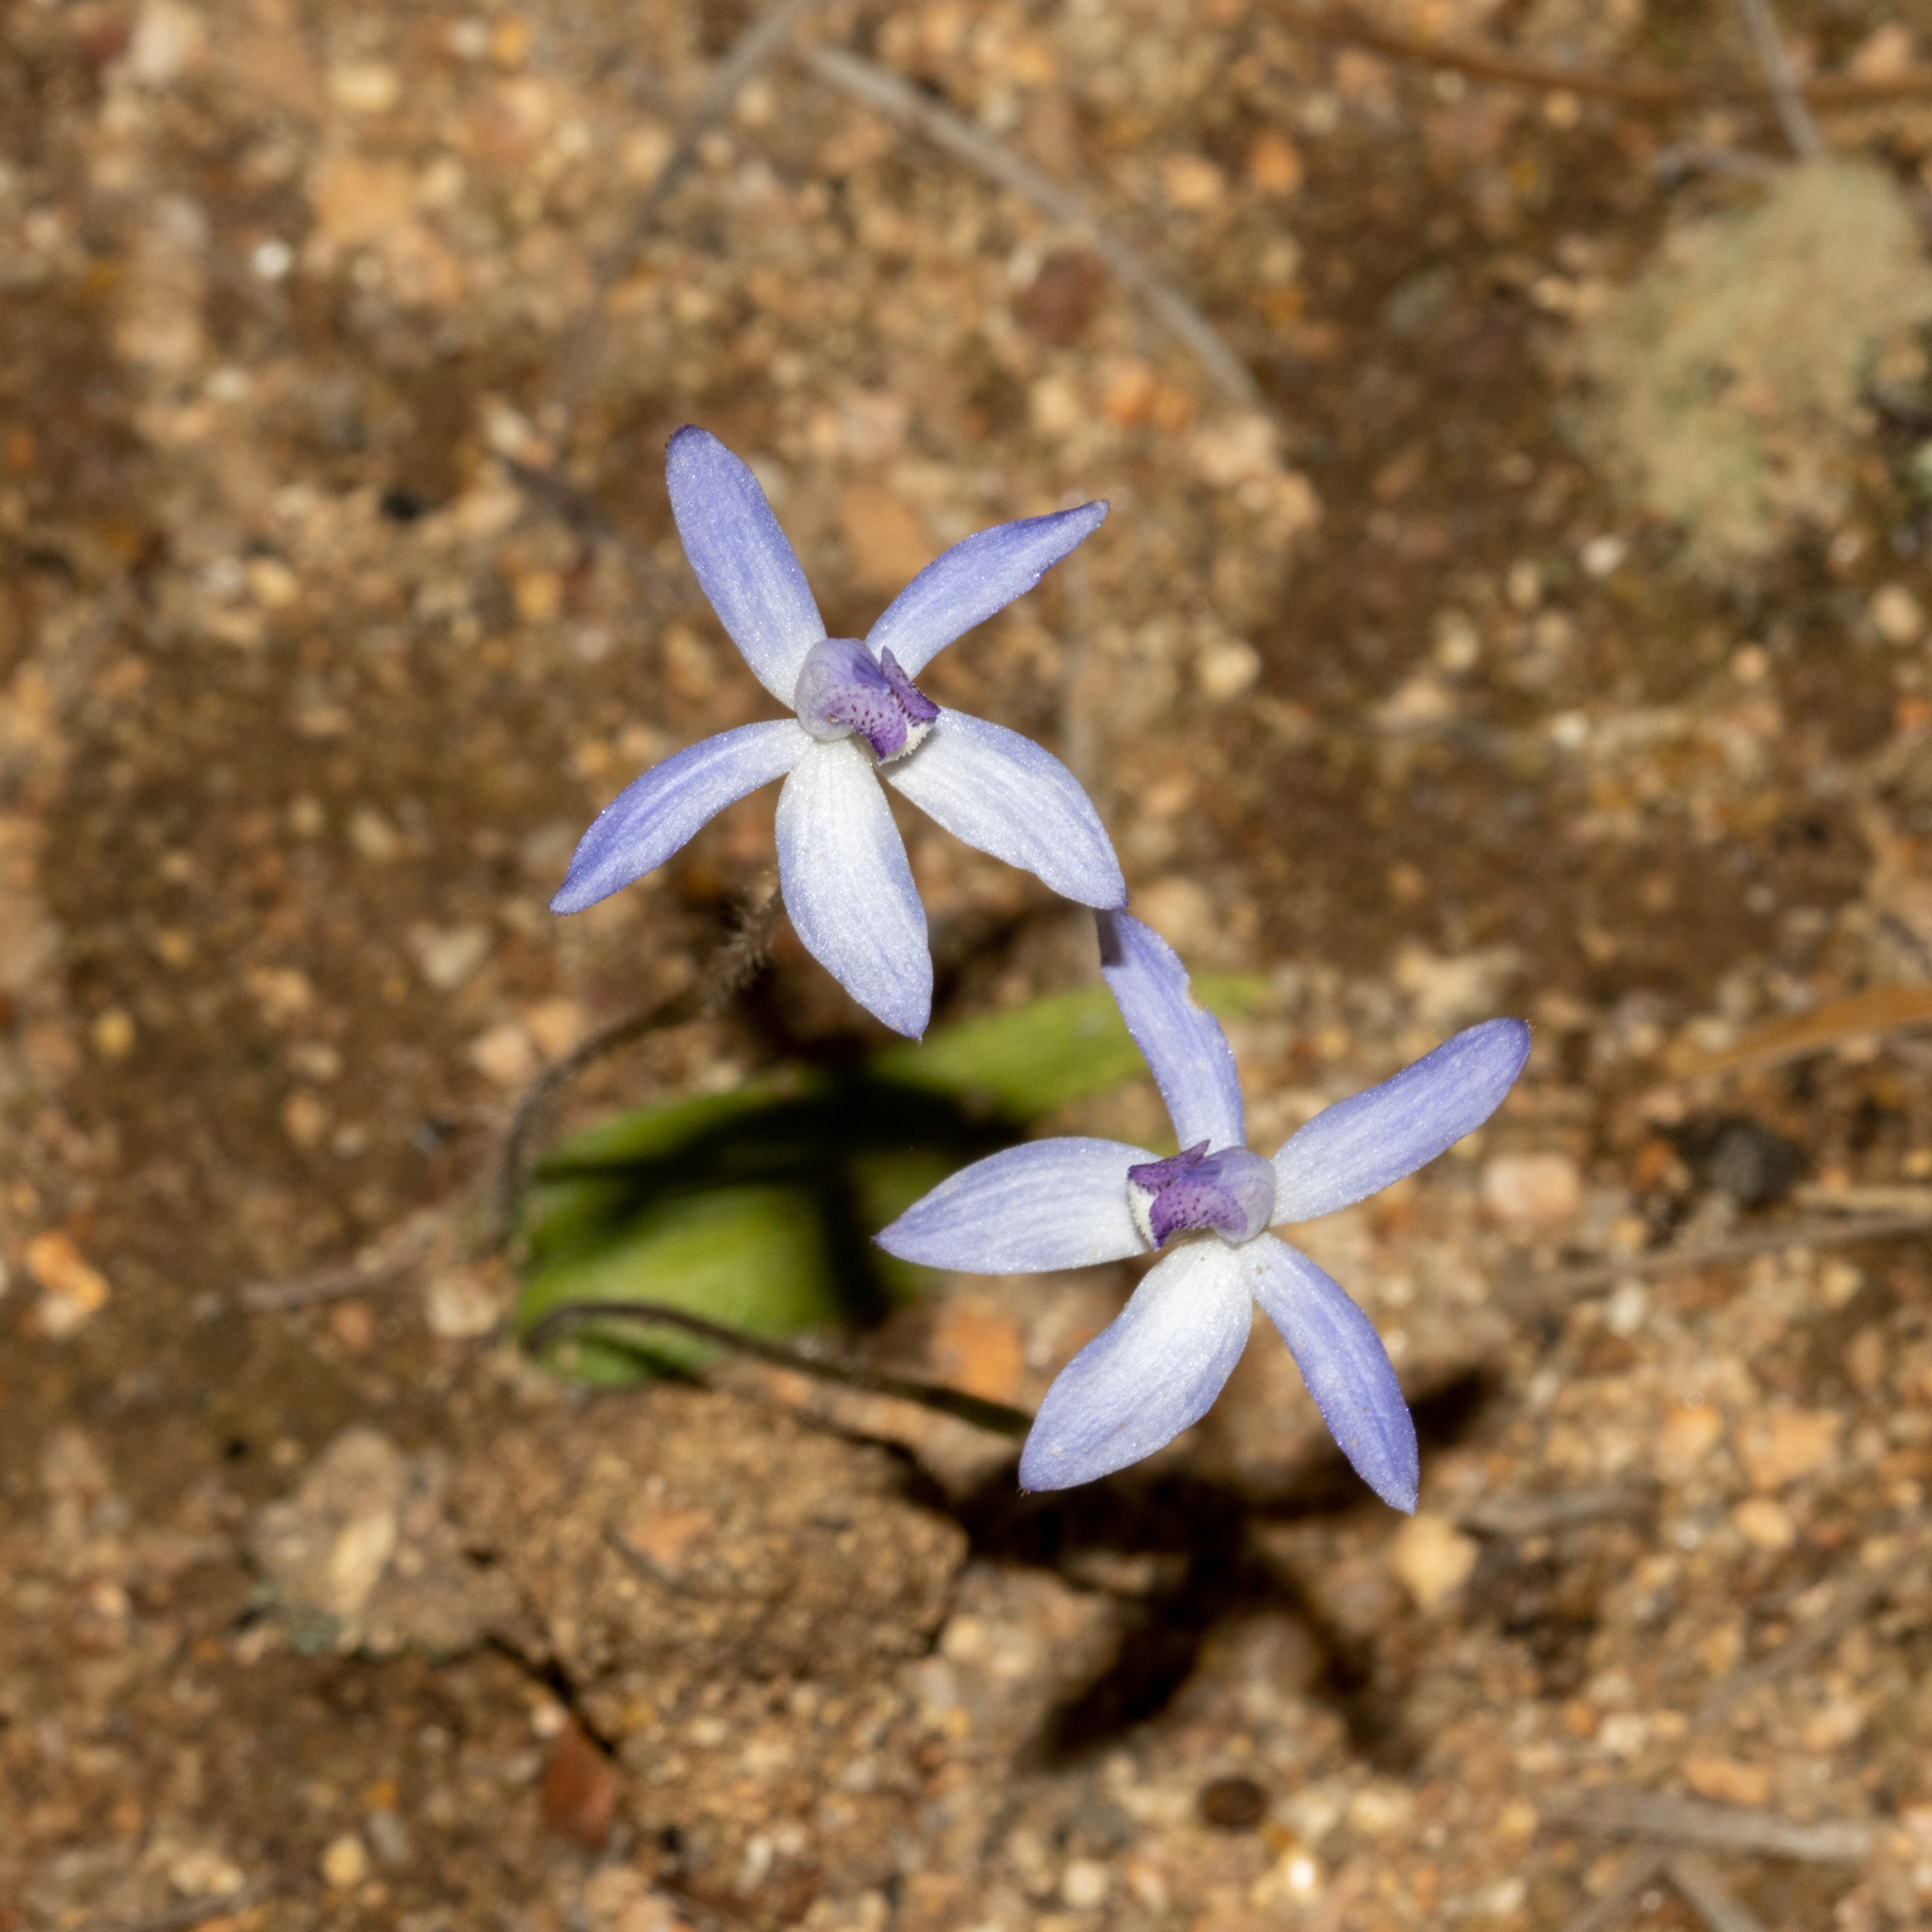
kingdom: Plantae
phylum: Tracheophyta
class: Liliopsida
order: Asparagales
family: Orchidaceae
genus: Caladenia
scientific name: Caladenia amplexans
